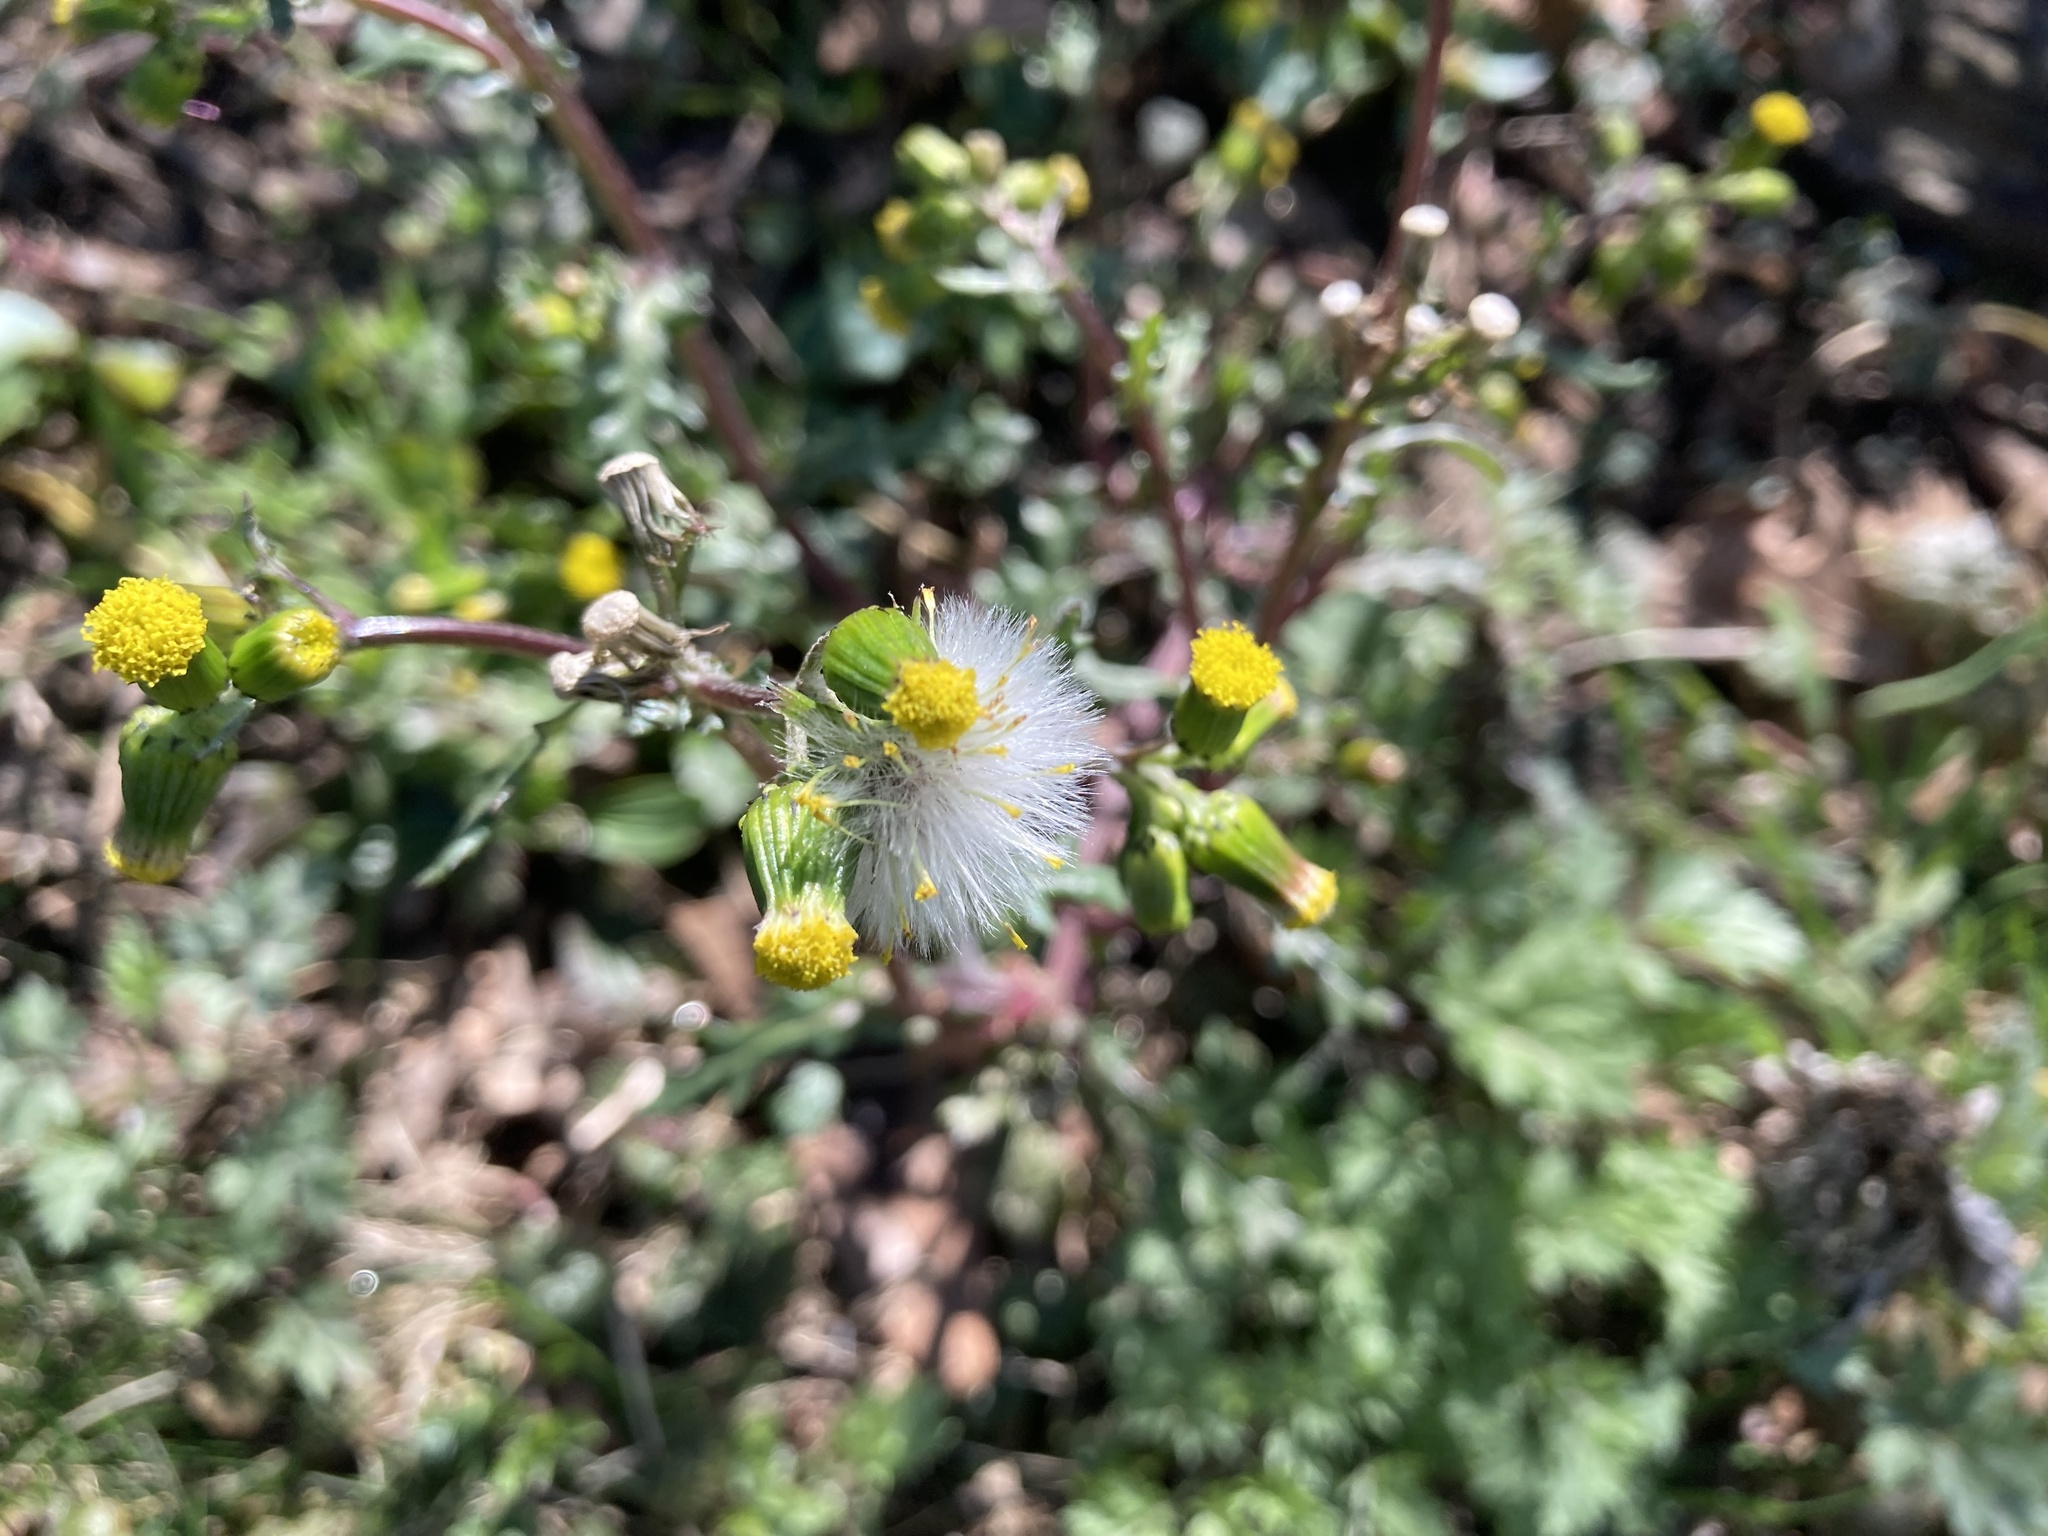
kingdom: Plantae
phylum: Tracheophyta
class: Magnoliopsida
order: Asterales
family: Asteraceae
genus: Senecio
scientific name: Senecio vulgaris
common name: Old-man-in-the-spring
